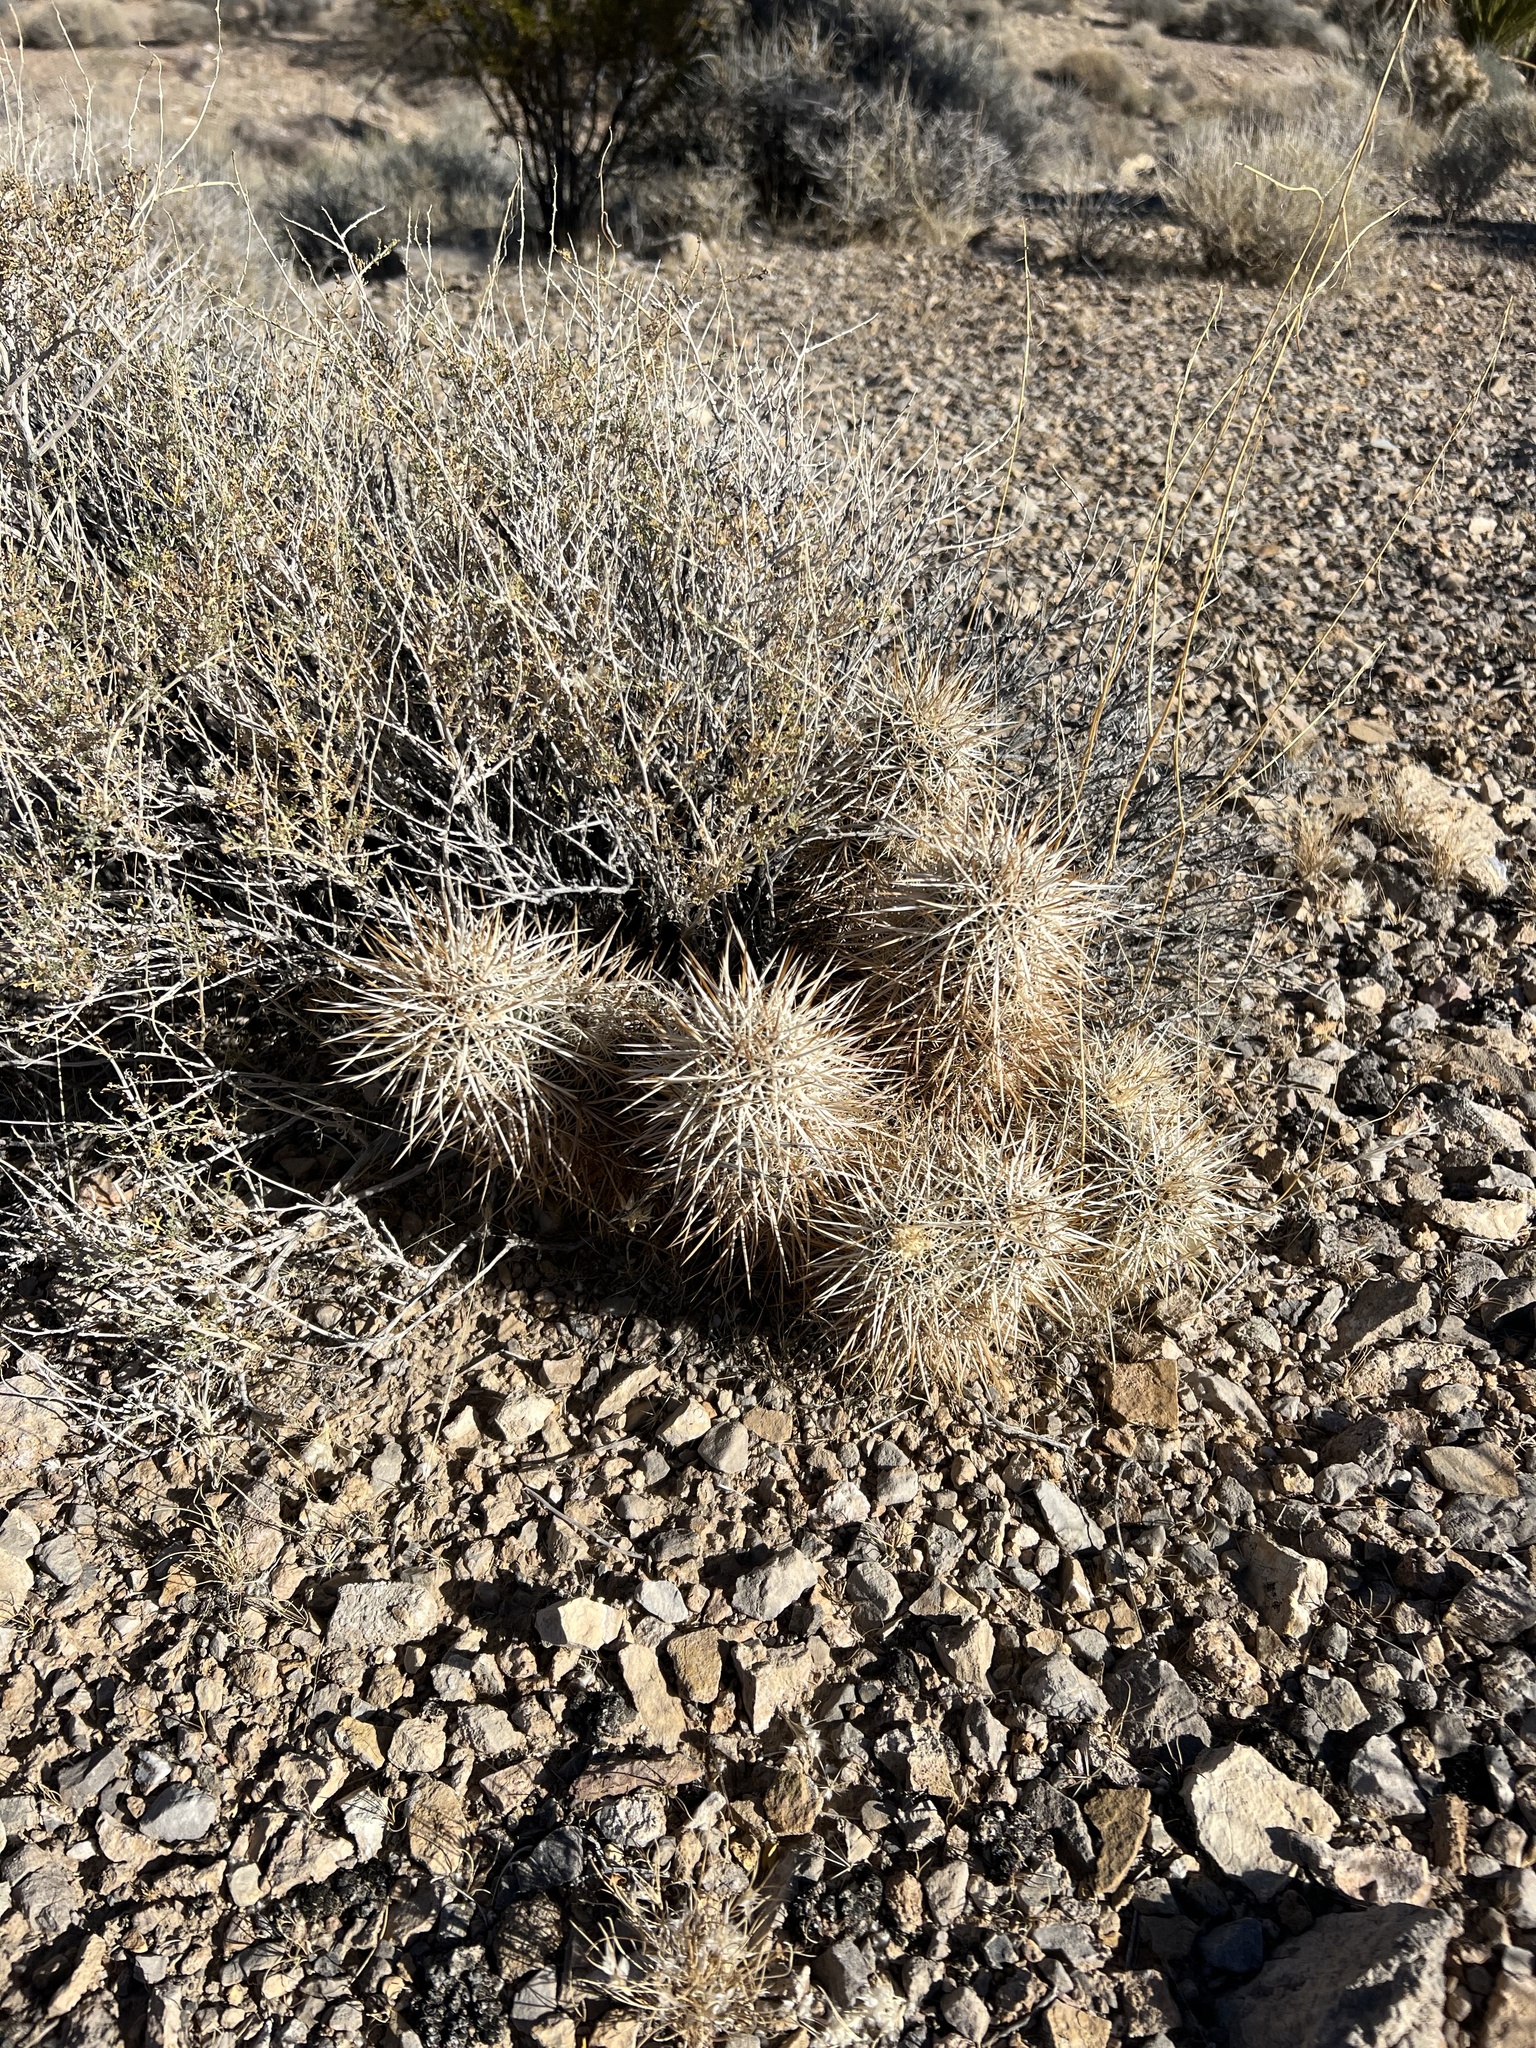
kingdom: Plantae
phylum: Tracheophyta
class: Magnoliopsida
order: Caryophyllales
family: Cactaceae
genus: Echinocereus
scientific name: Echinocereus engelmannii
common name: Engelmann's hedgehog cactus
